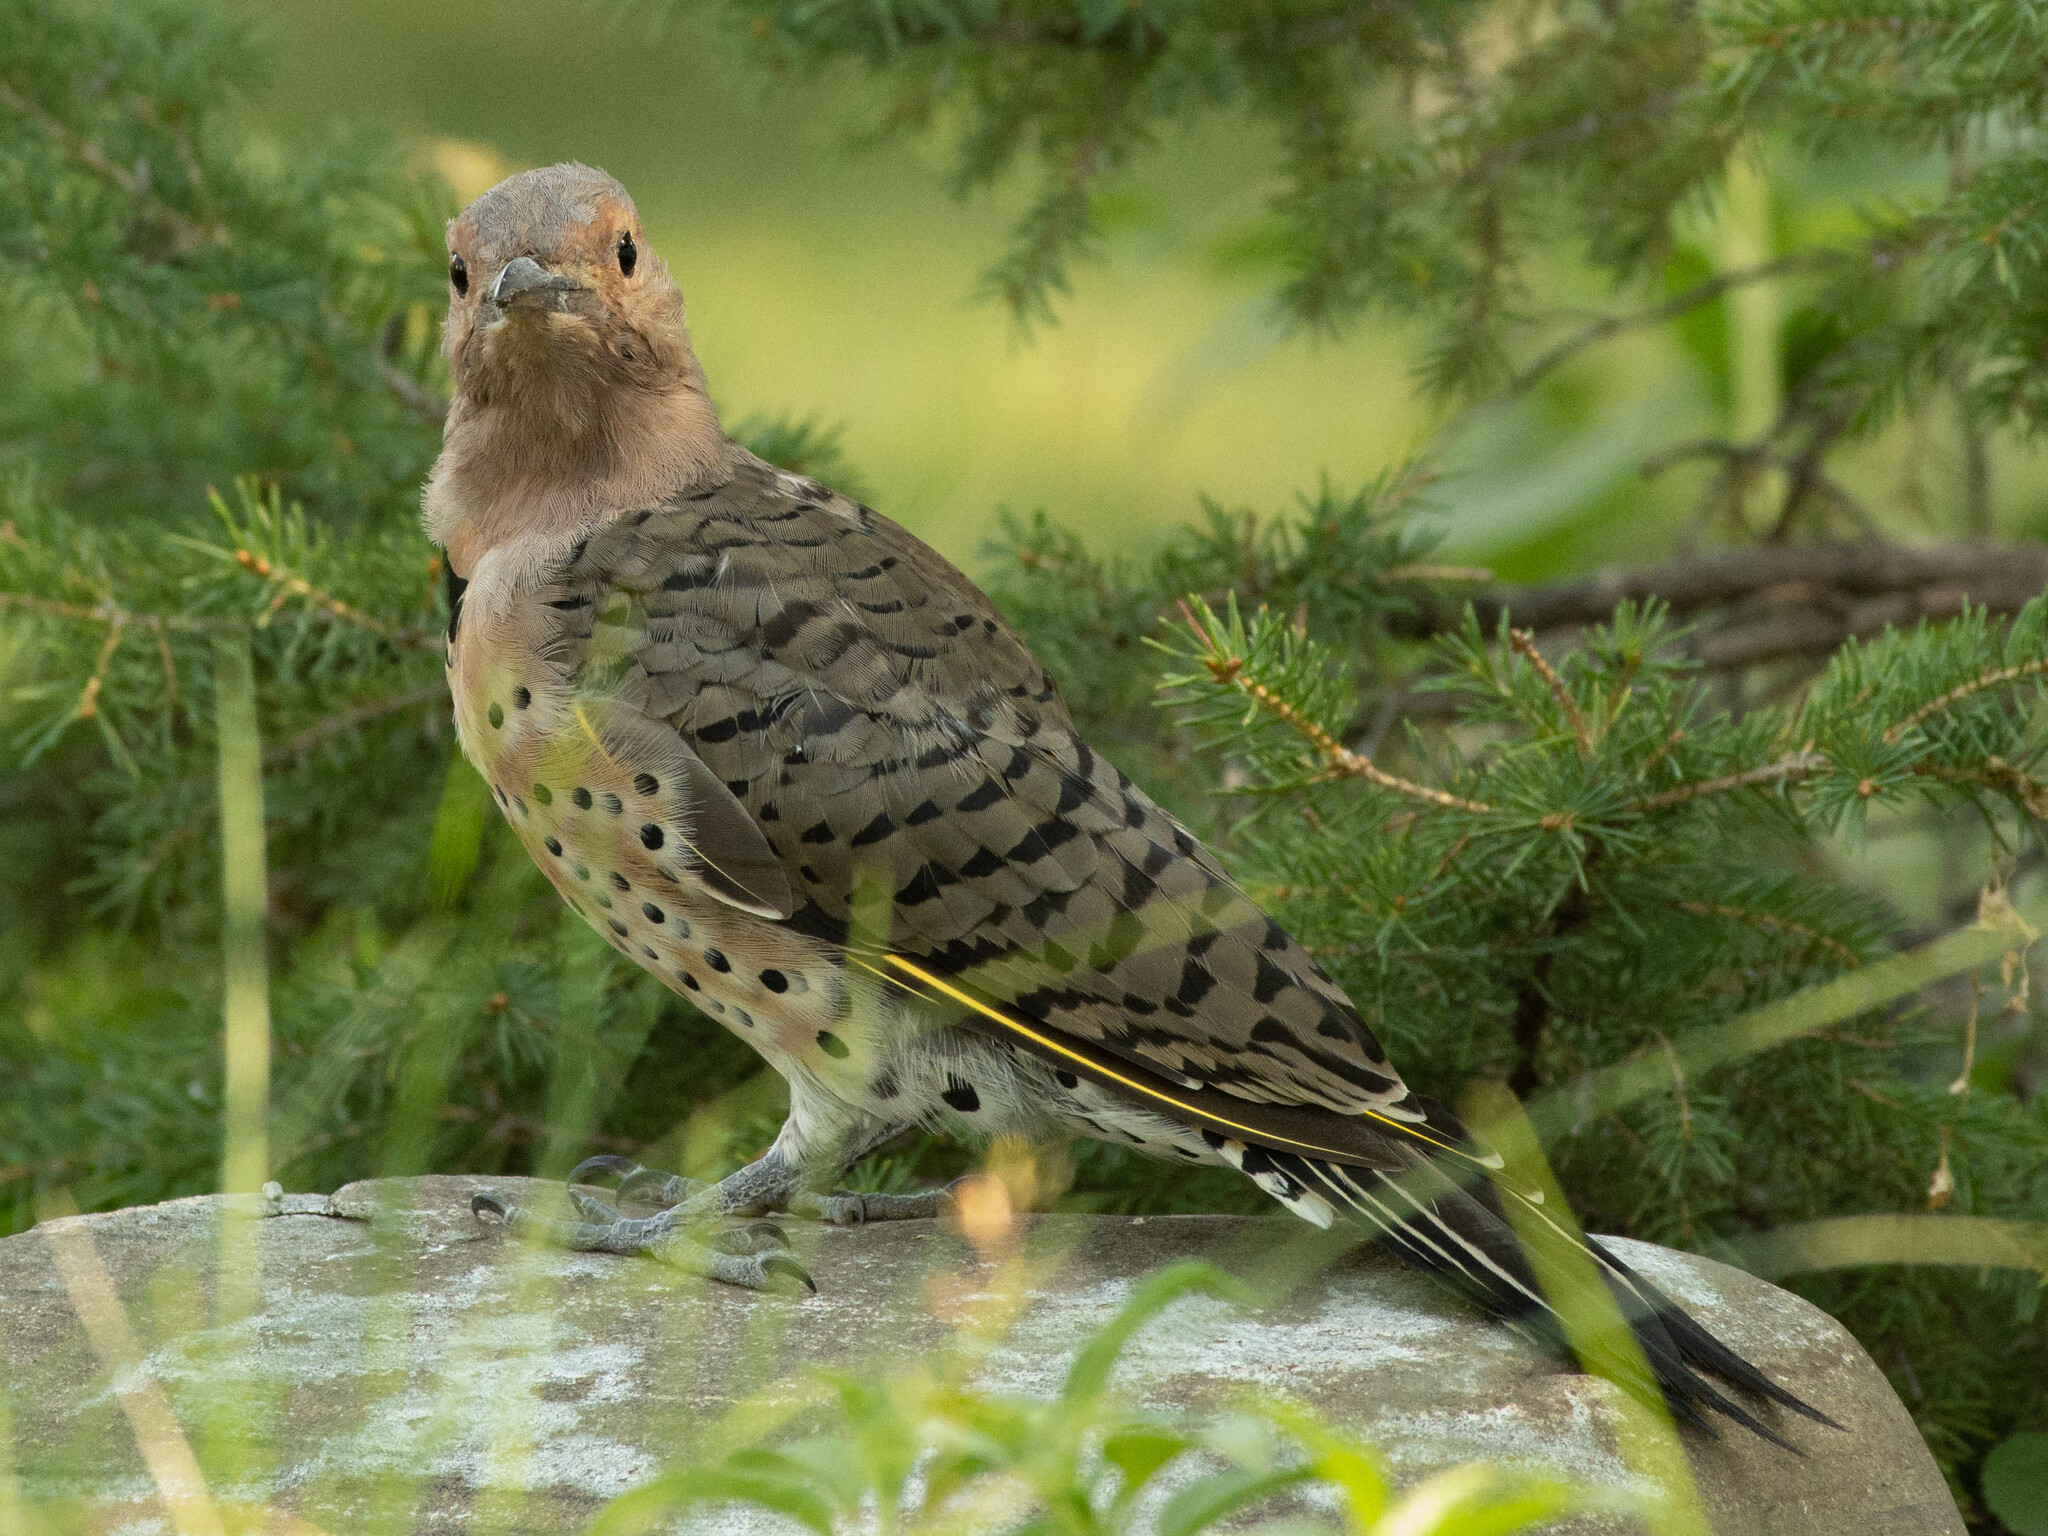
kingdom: Animalia
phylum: Chordata
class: Aves
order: Piciformes
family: Picidae
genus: Colaptes
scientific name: Colaptes auratus
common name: Northern flicker
